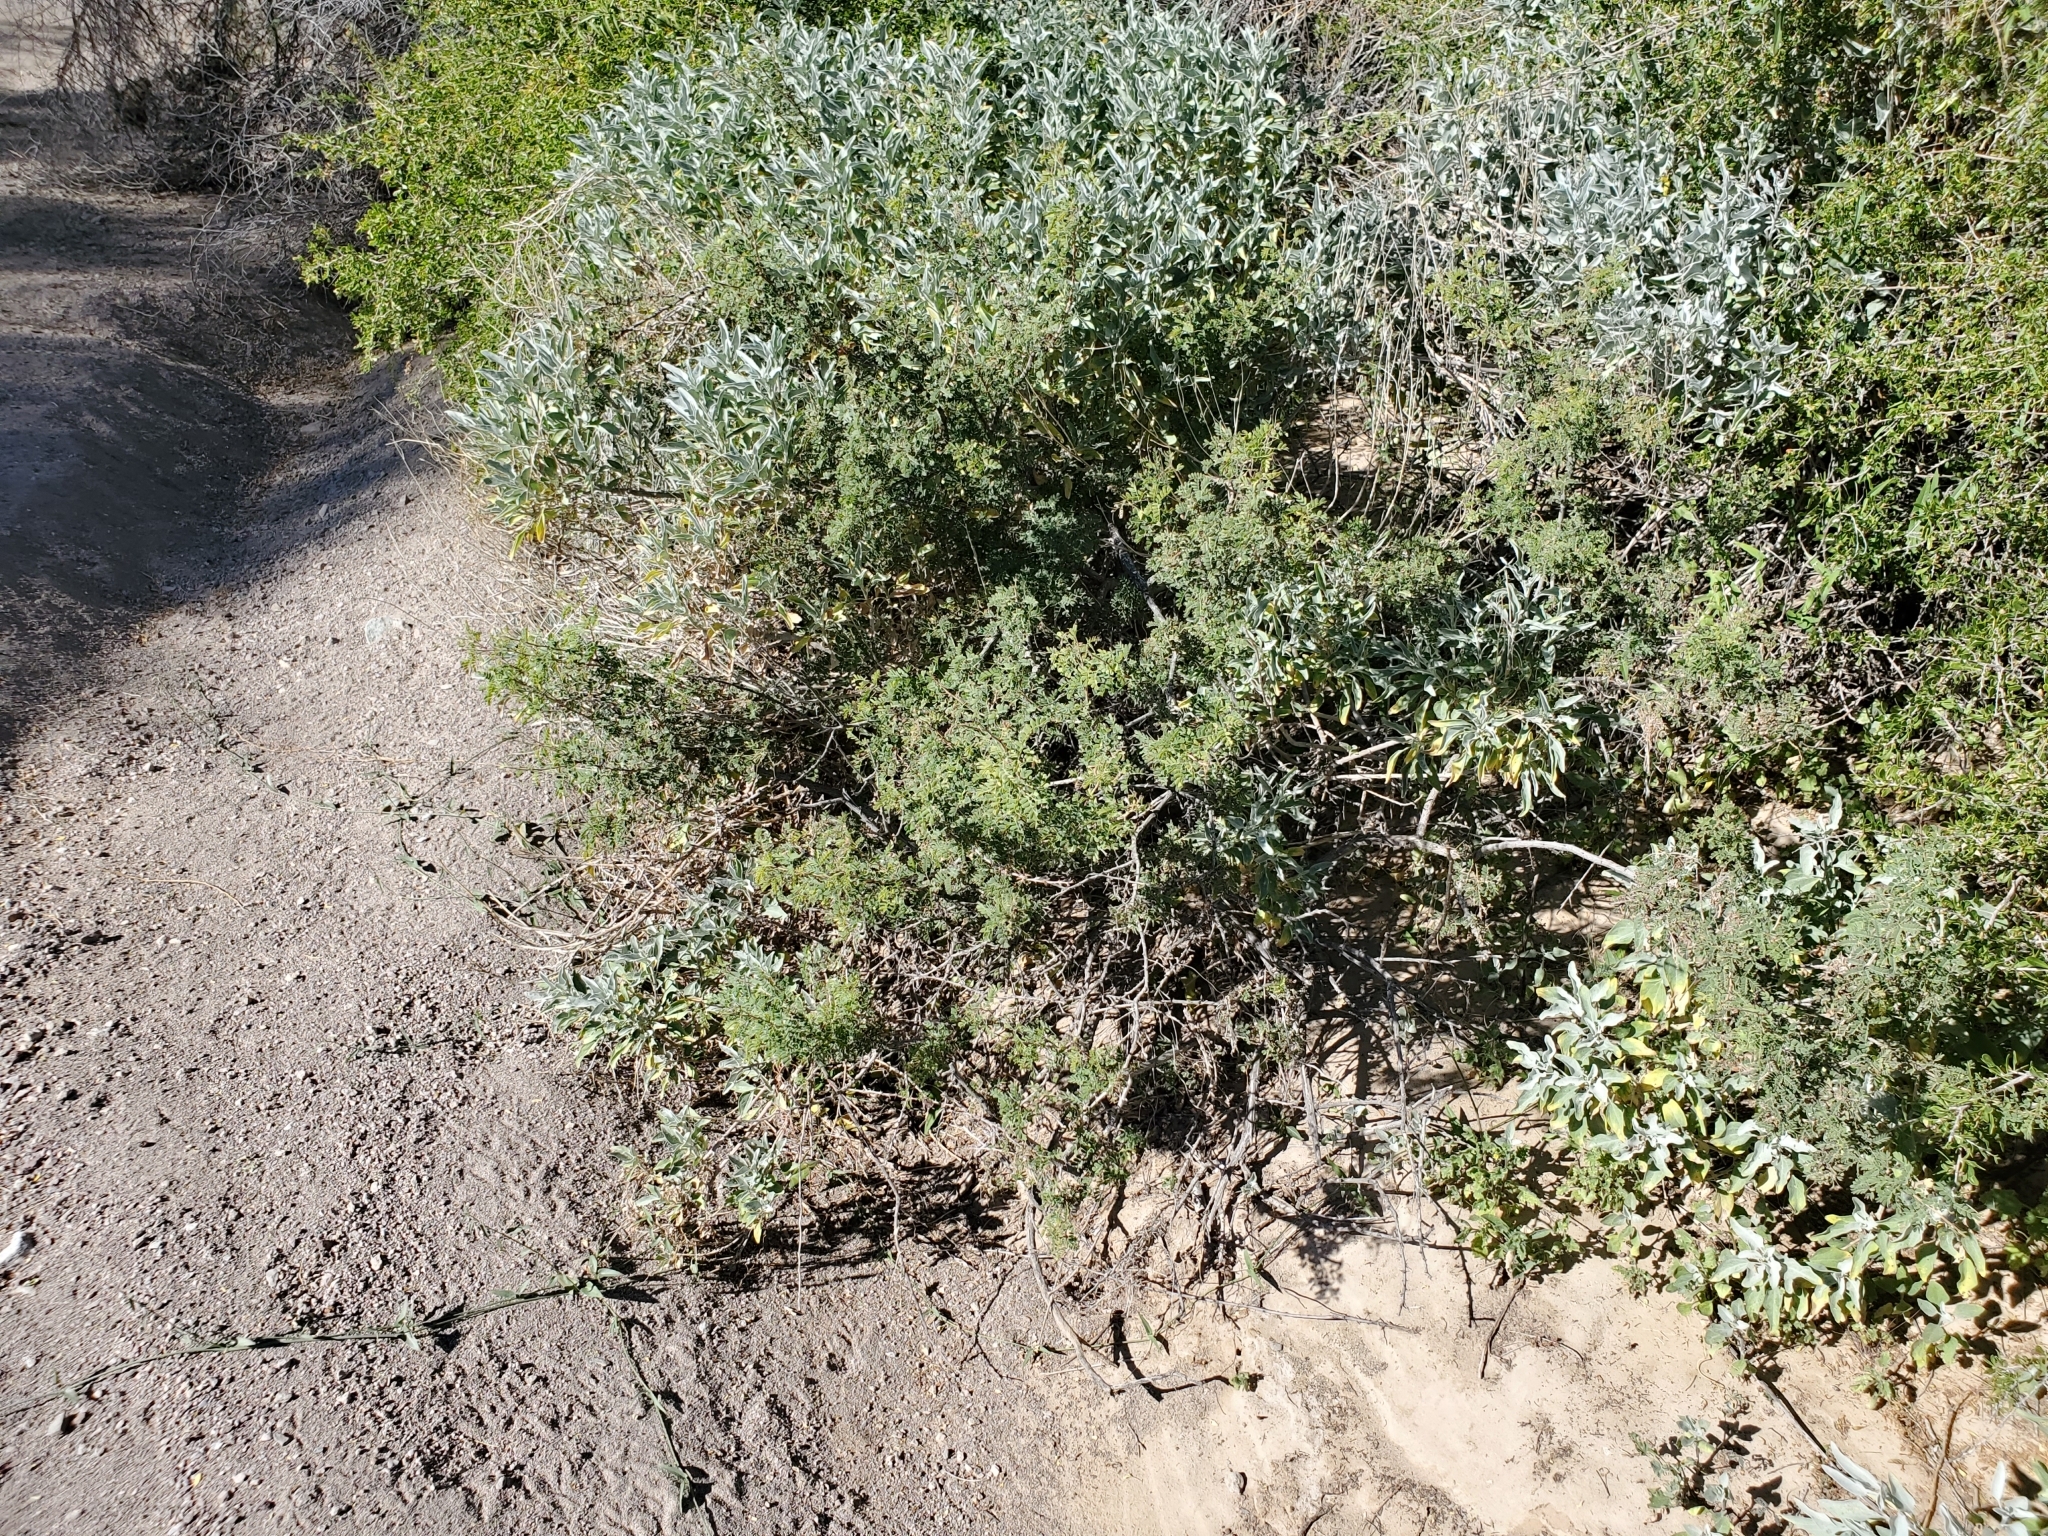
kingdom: Plantae
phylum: Tracheophyta
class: Magnoliopsida
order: Fabales
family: Fabaceae
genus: Senegalia
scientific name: Senegalia greggii
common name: Texas-mimosa
